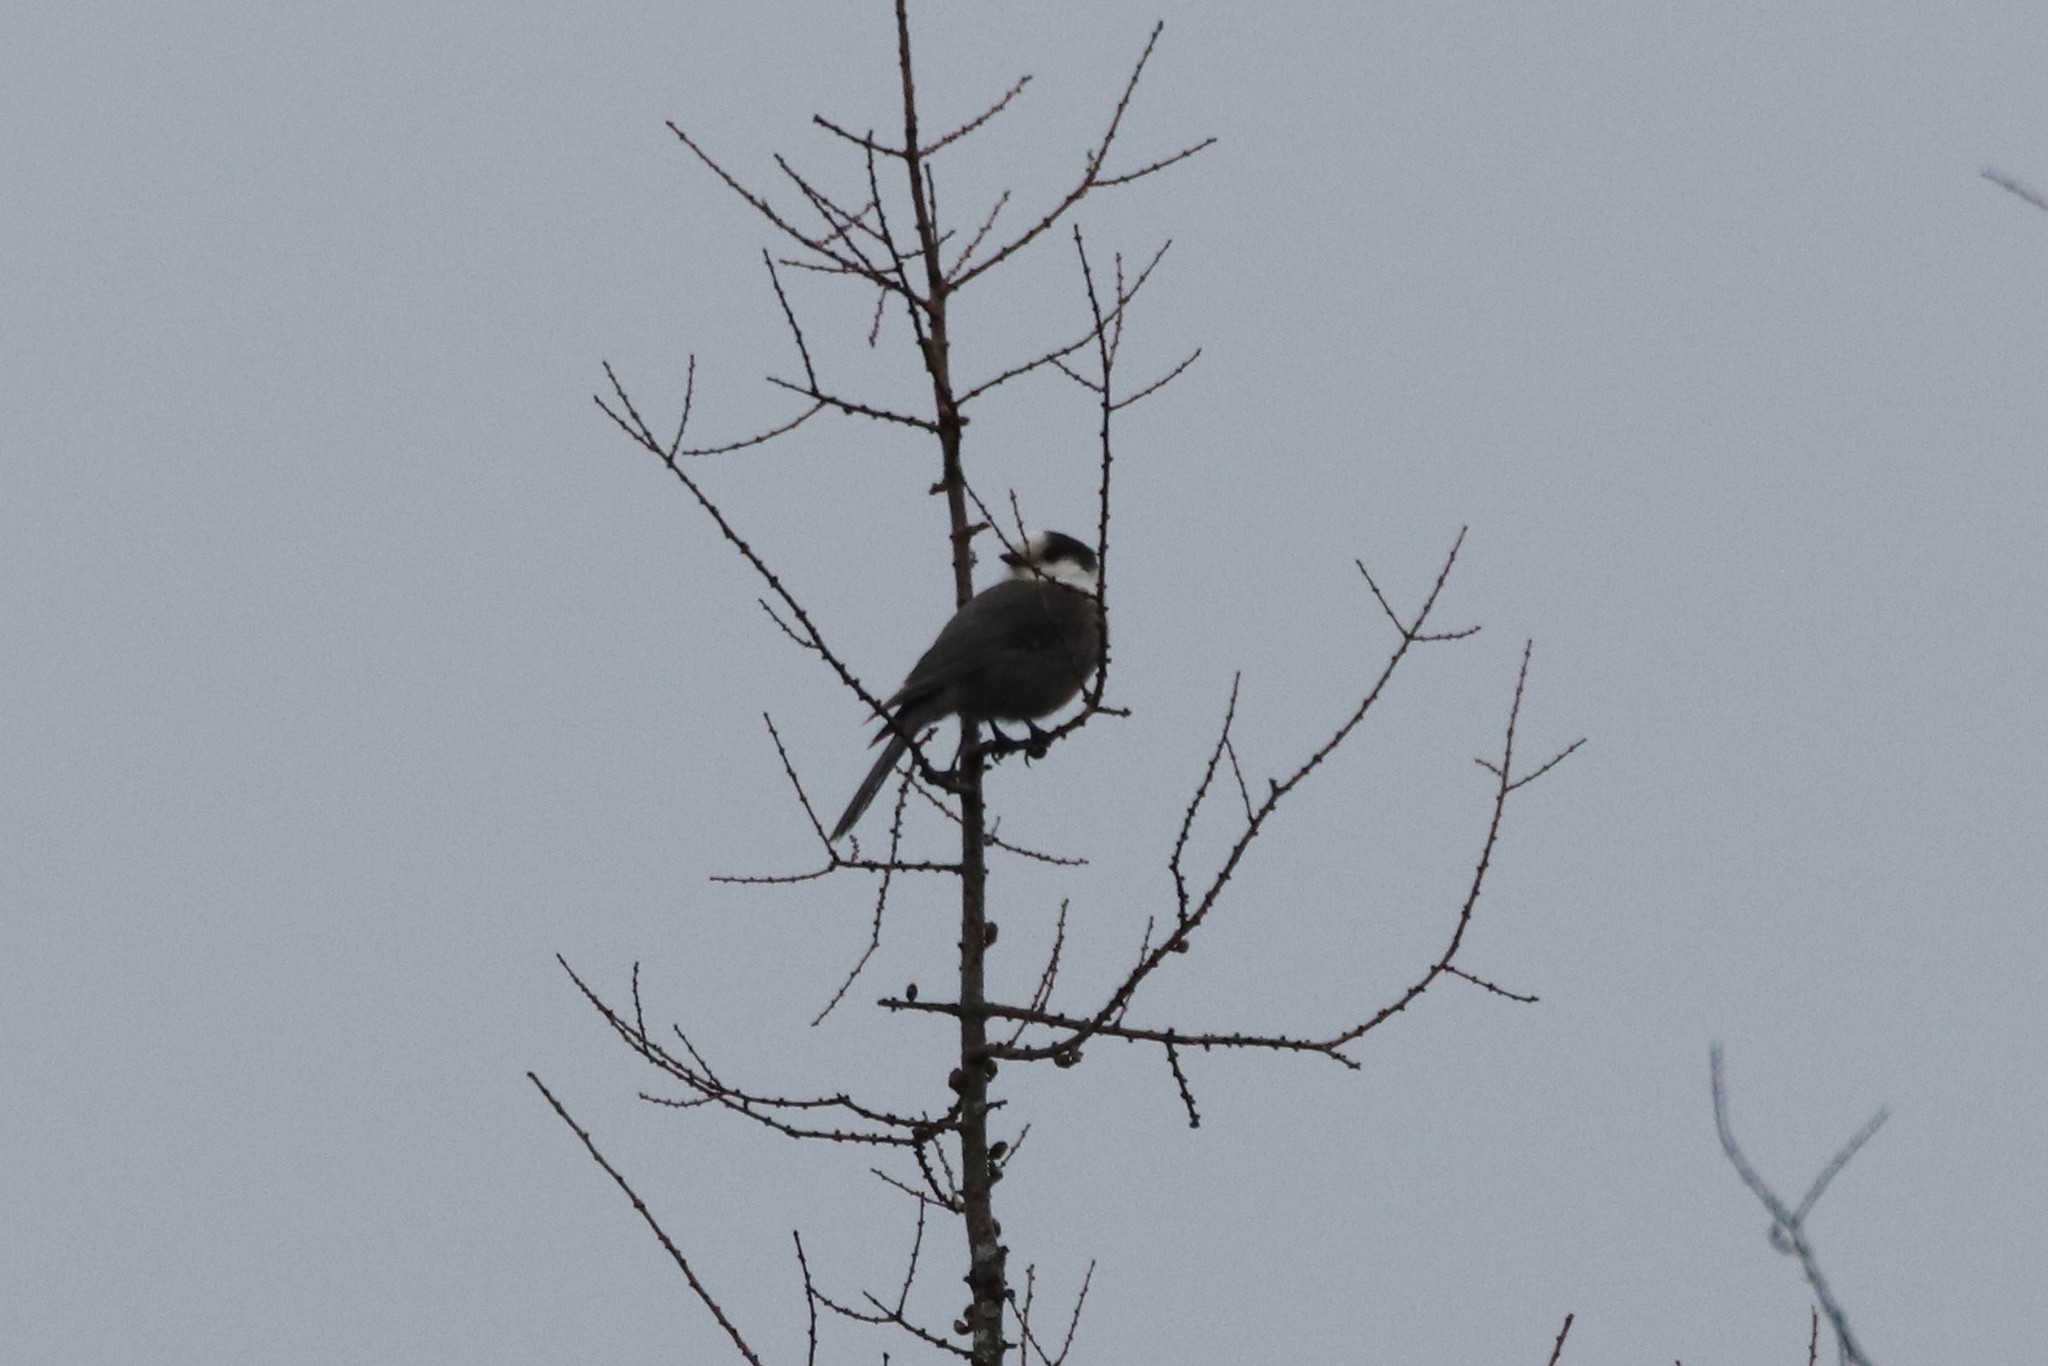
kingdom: Animalia
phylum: Chordata
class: Aves
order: Passeriformes
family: Corvidae
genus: Perisoreus
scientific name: Perisoreus canadensis
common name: Gray jay
